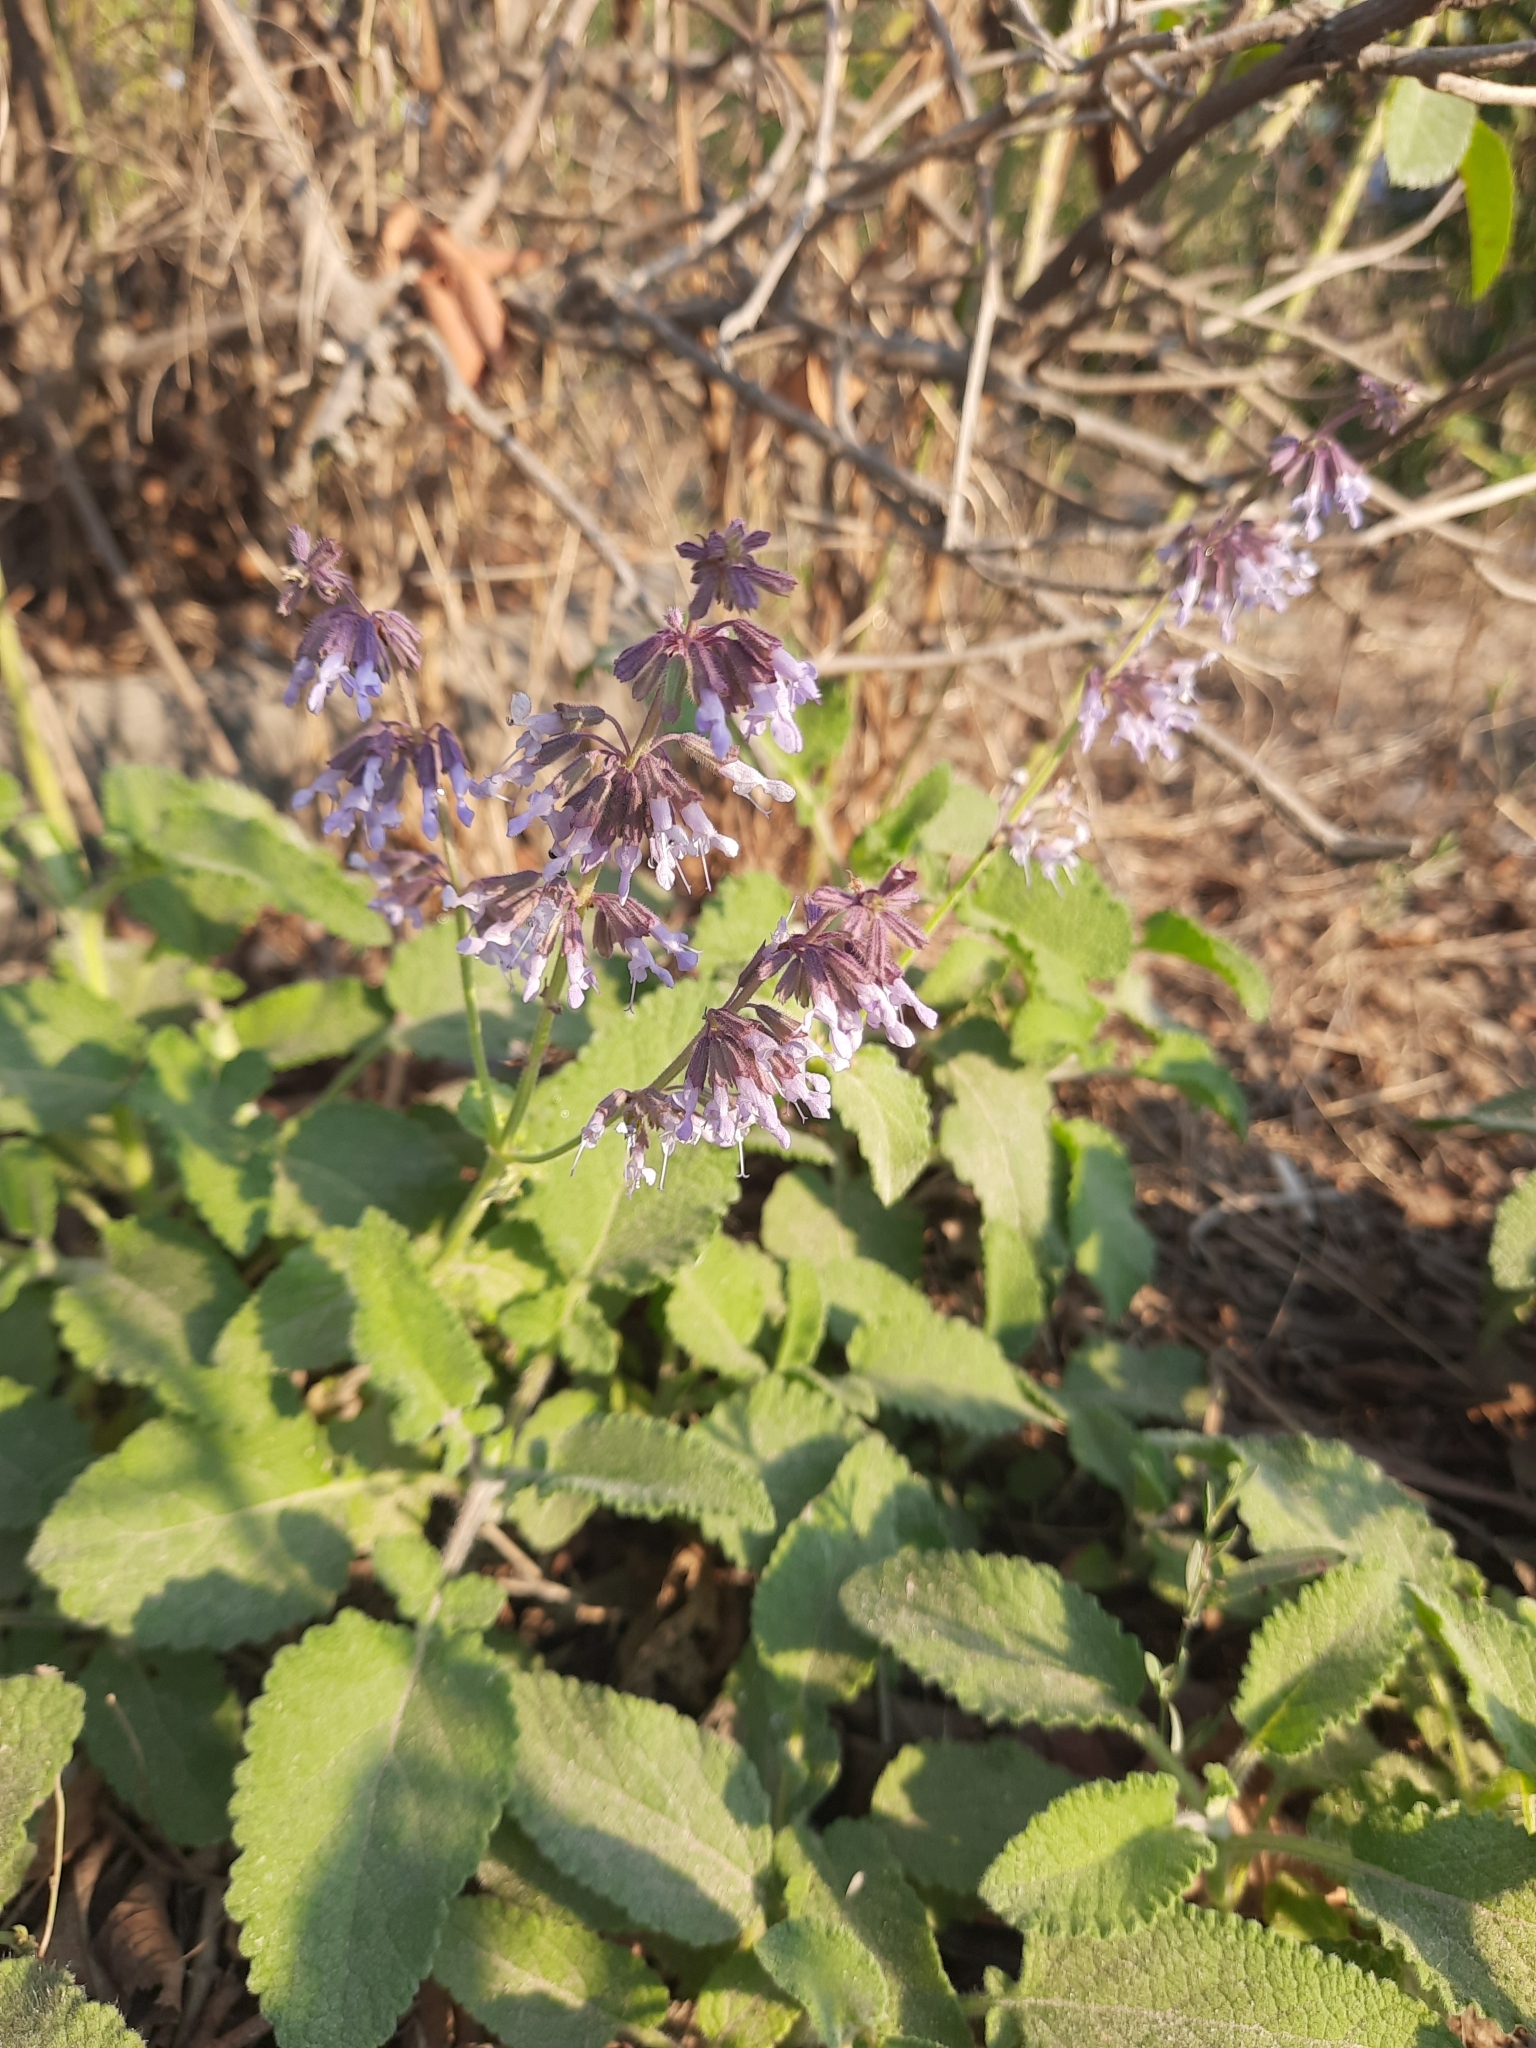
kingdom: Plantae
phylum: Tracheophyta
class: Magnoliopsida
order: Lamiales
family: Lamiaceae
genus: Salvia
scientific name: Salvia verticillata
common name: Whorled clary
